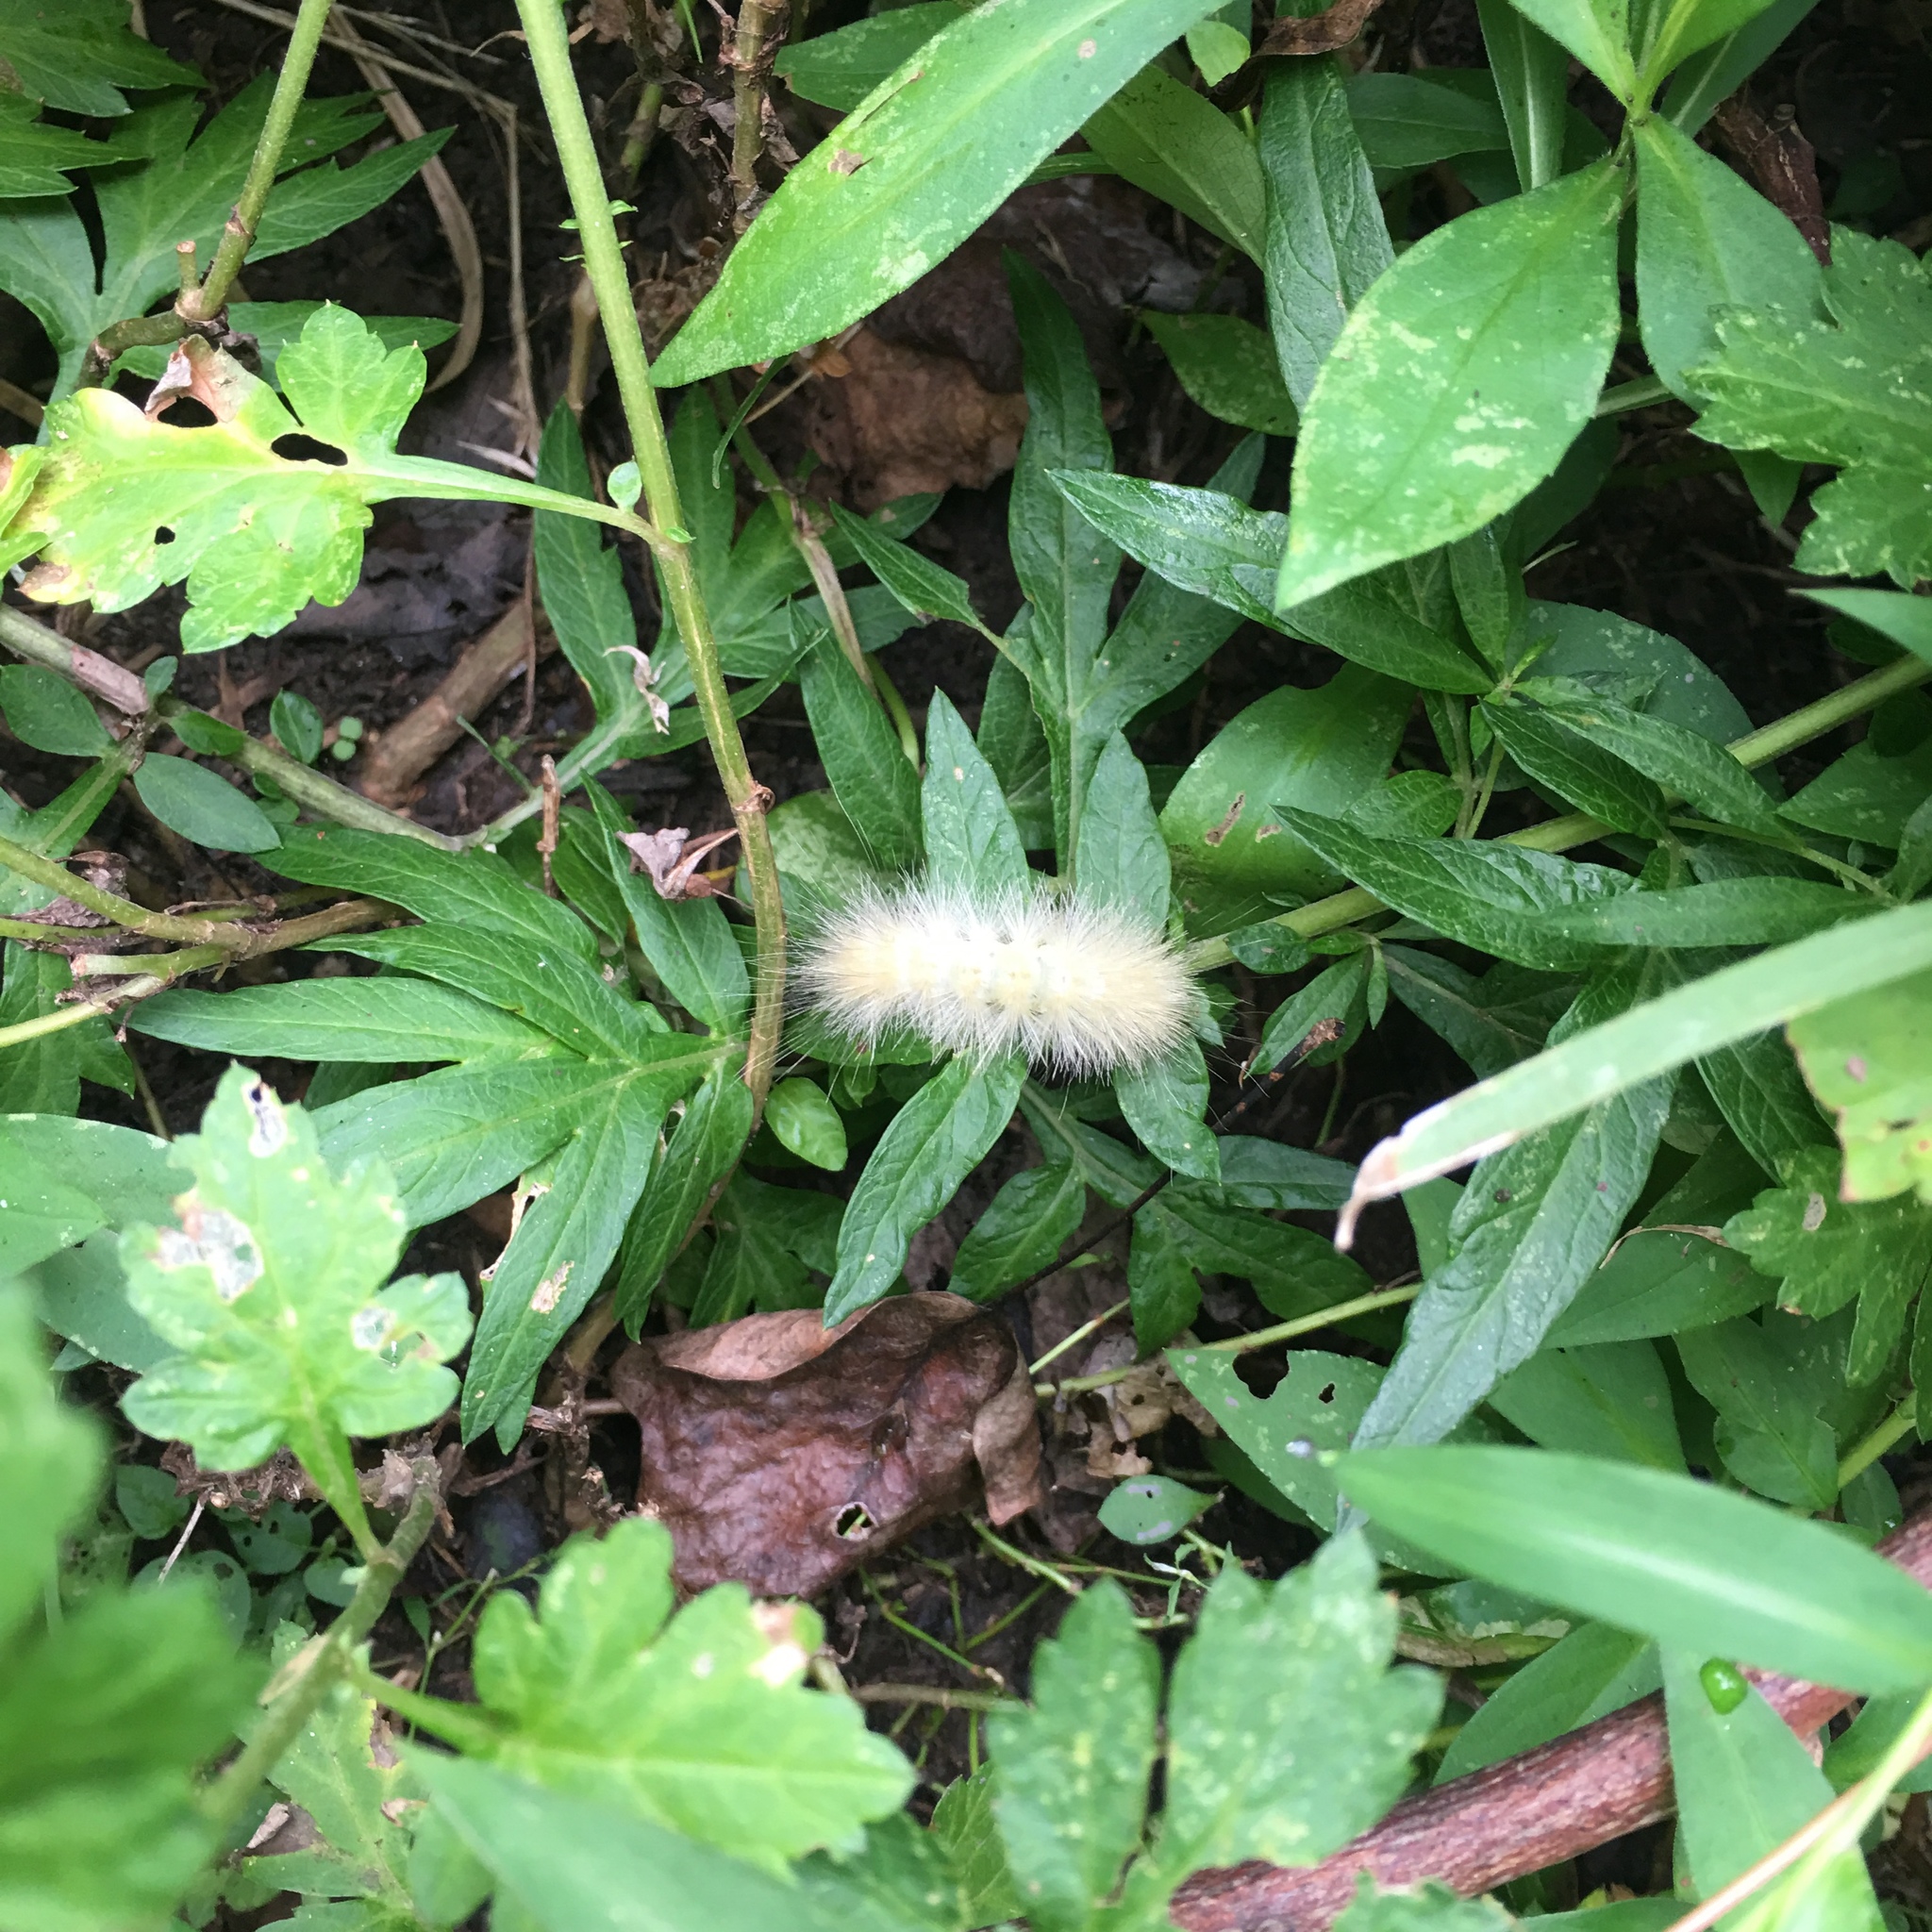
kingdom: Animalia
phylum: Arthropoda
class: Insecta
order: Lepidoptera
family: Erebidae
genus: Spilosoma
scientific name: Spilosoma virginica
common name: Virginia tiger moth
